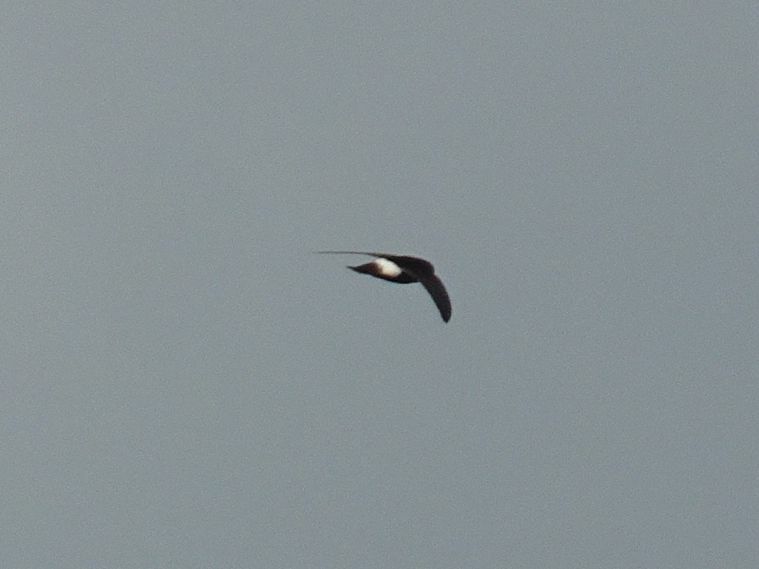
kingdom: Animalia
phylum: Chordata
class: Aves
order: Apodiformes
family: Apodidae
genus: Apus
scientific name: Apus affinis
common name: Little swift
